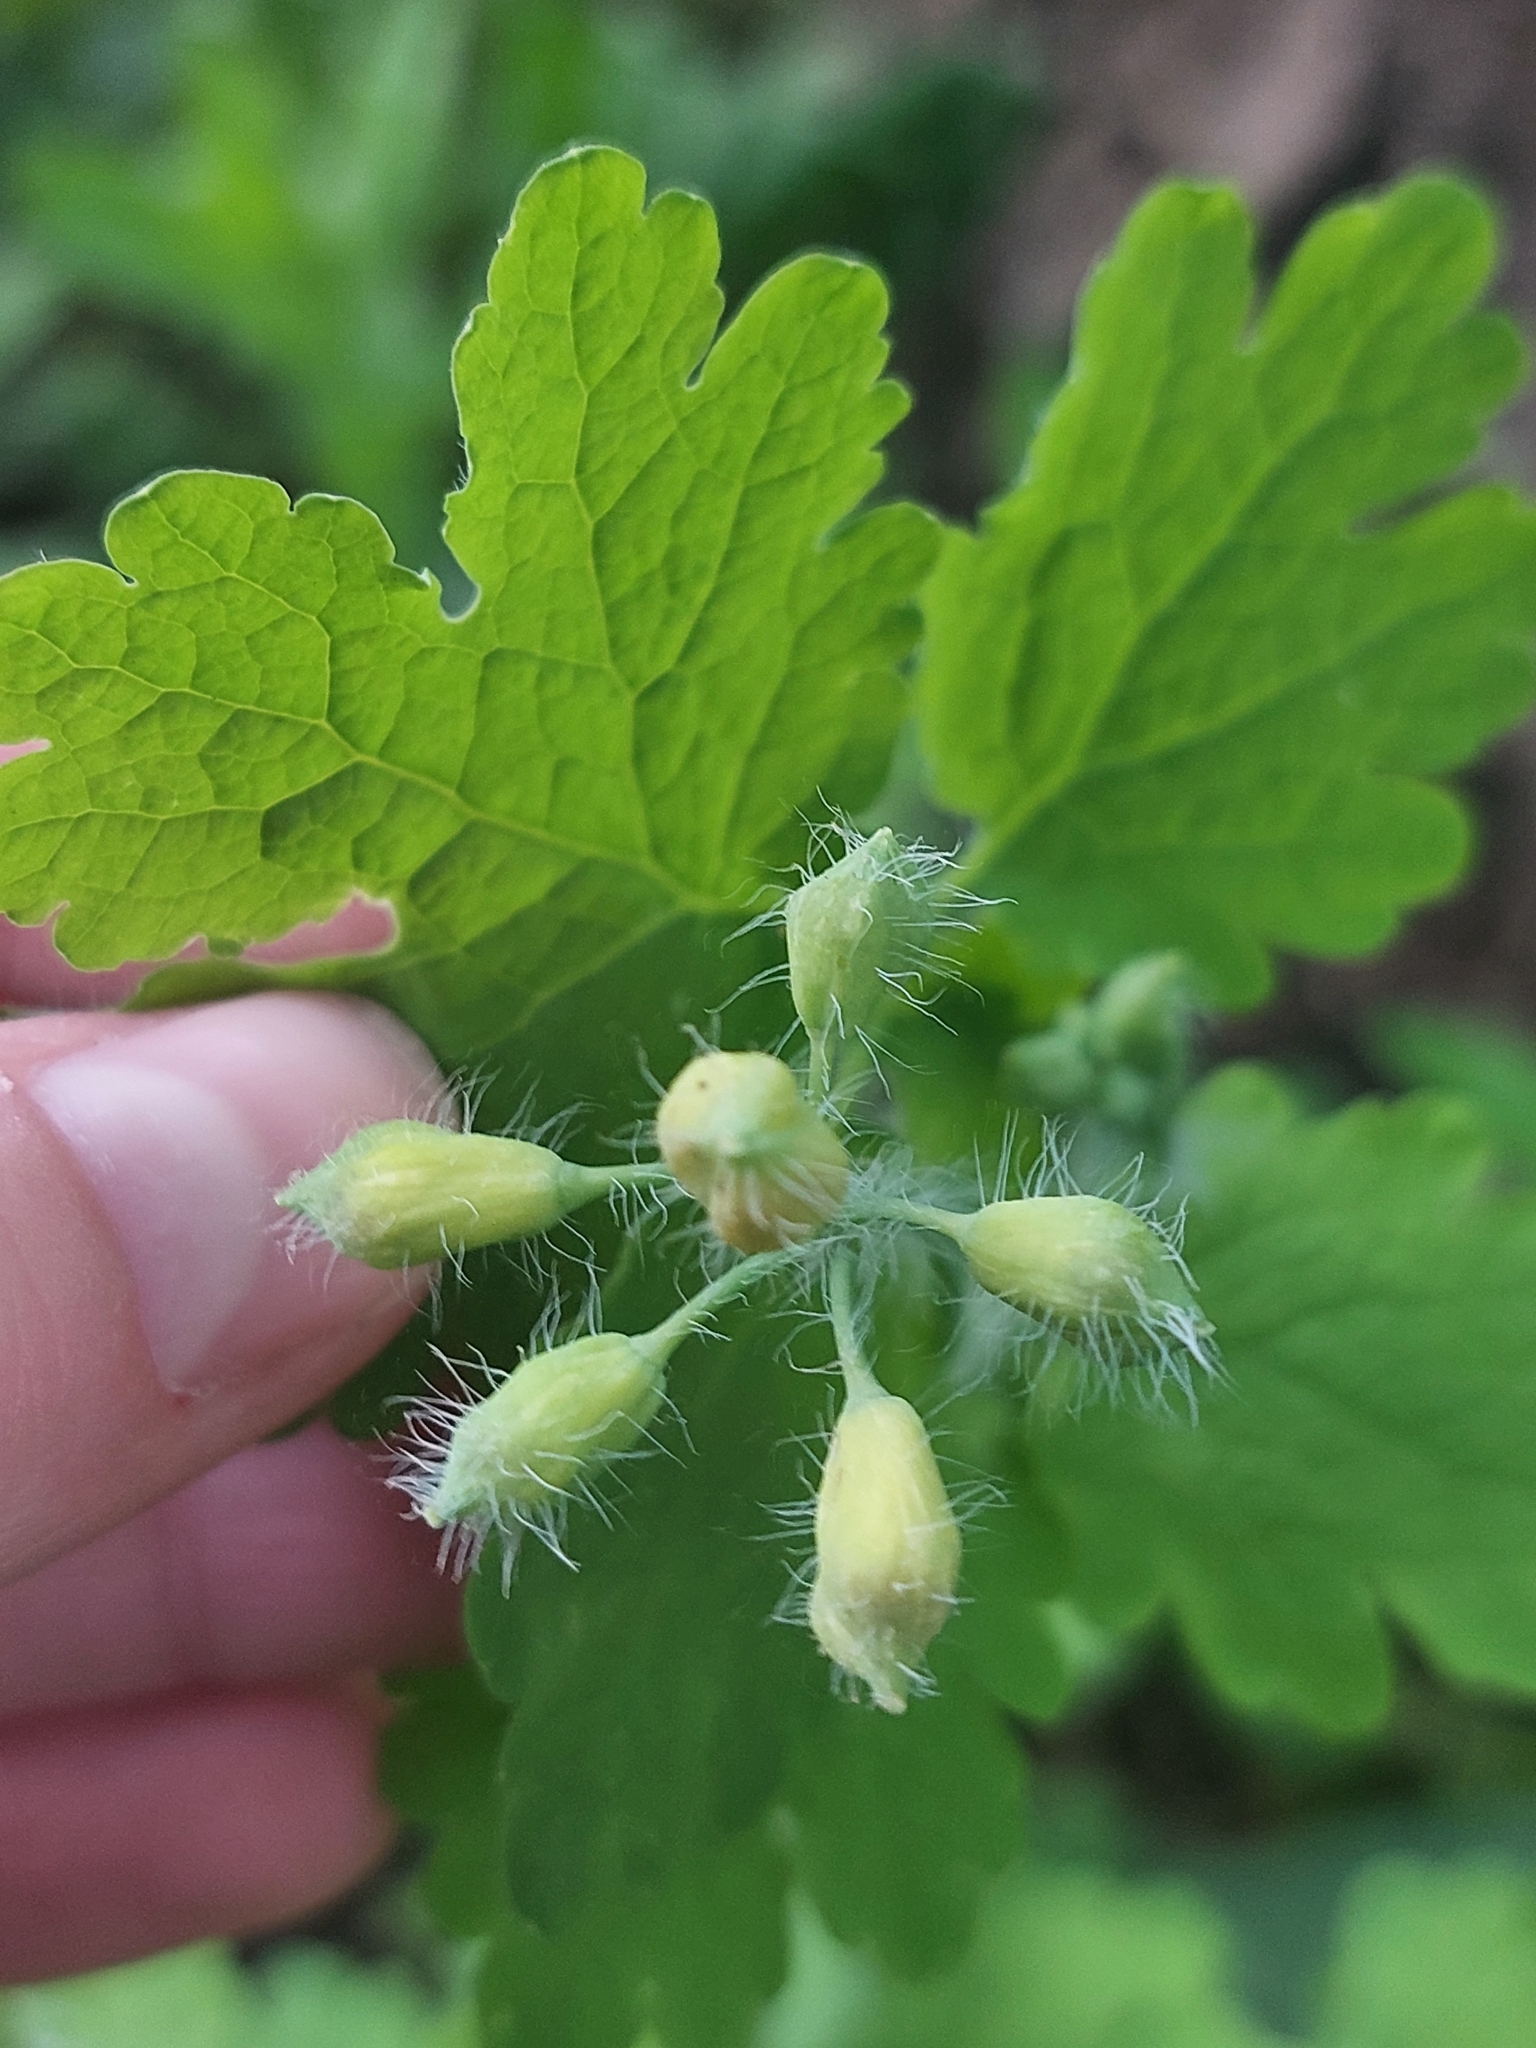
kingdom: Plantae
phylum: Tracheophyta
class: Magnoliopsida
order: Ranunculales
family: Papaveraceae
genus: Chelidonium
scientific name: Chelidonium majus
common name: Greater celandine
